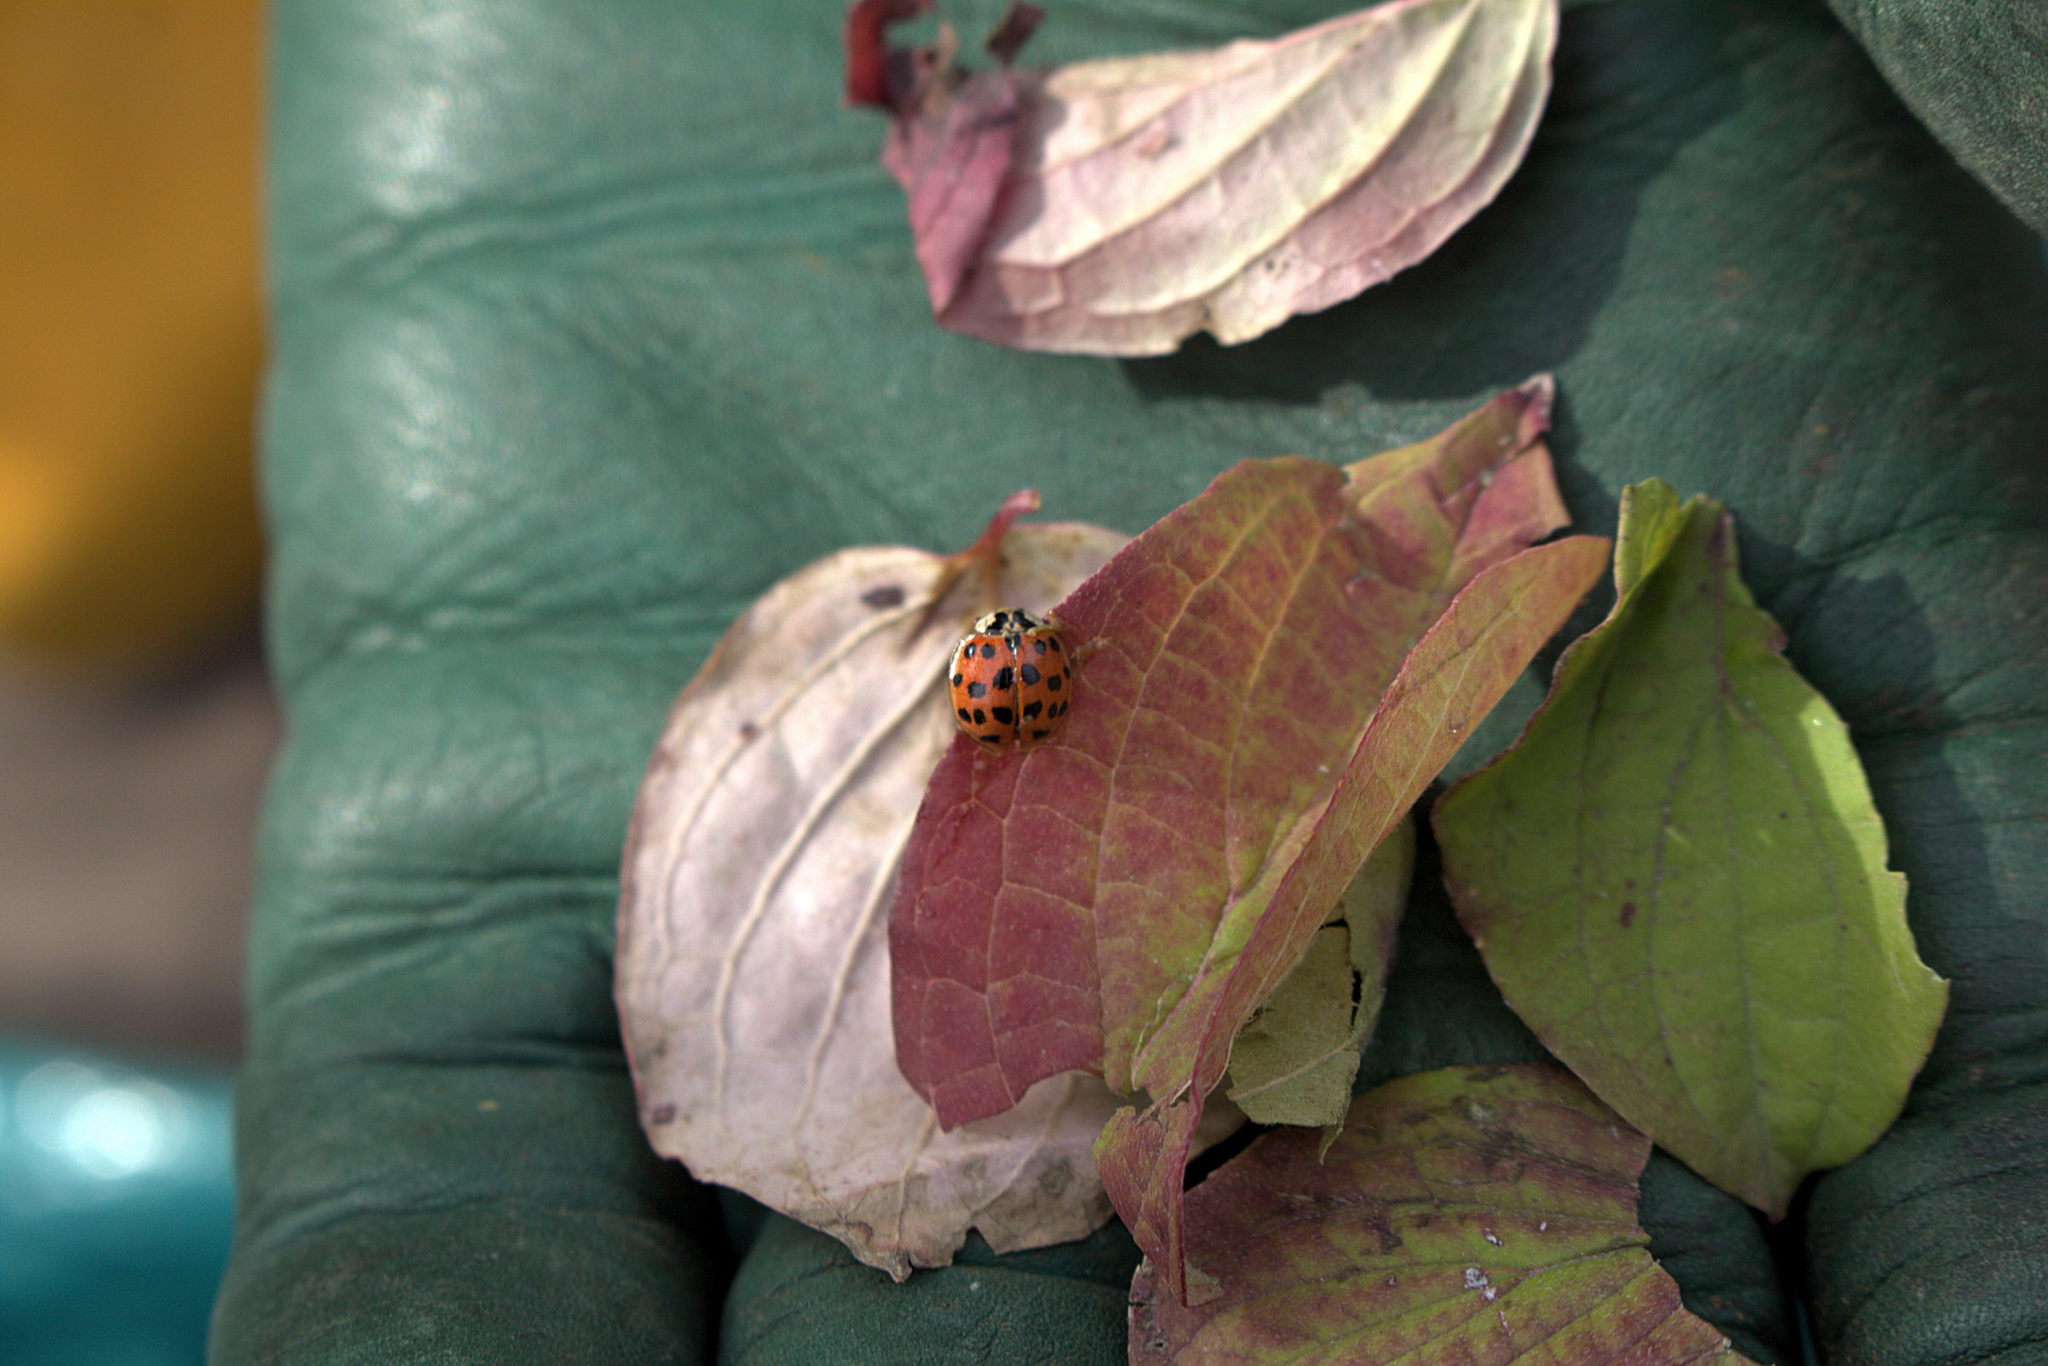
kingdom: Animalia
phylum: Arthropoda
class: Insecta
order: Coleoptera
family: Coccinellidae
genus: Harmonia
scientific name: Harmonia axyridis
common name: Harlequin ladybird
